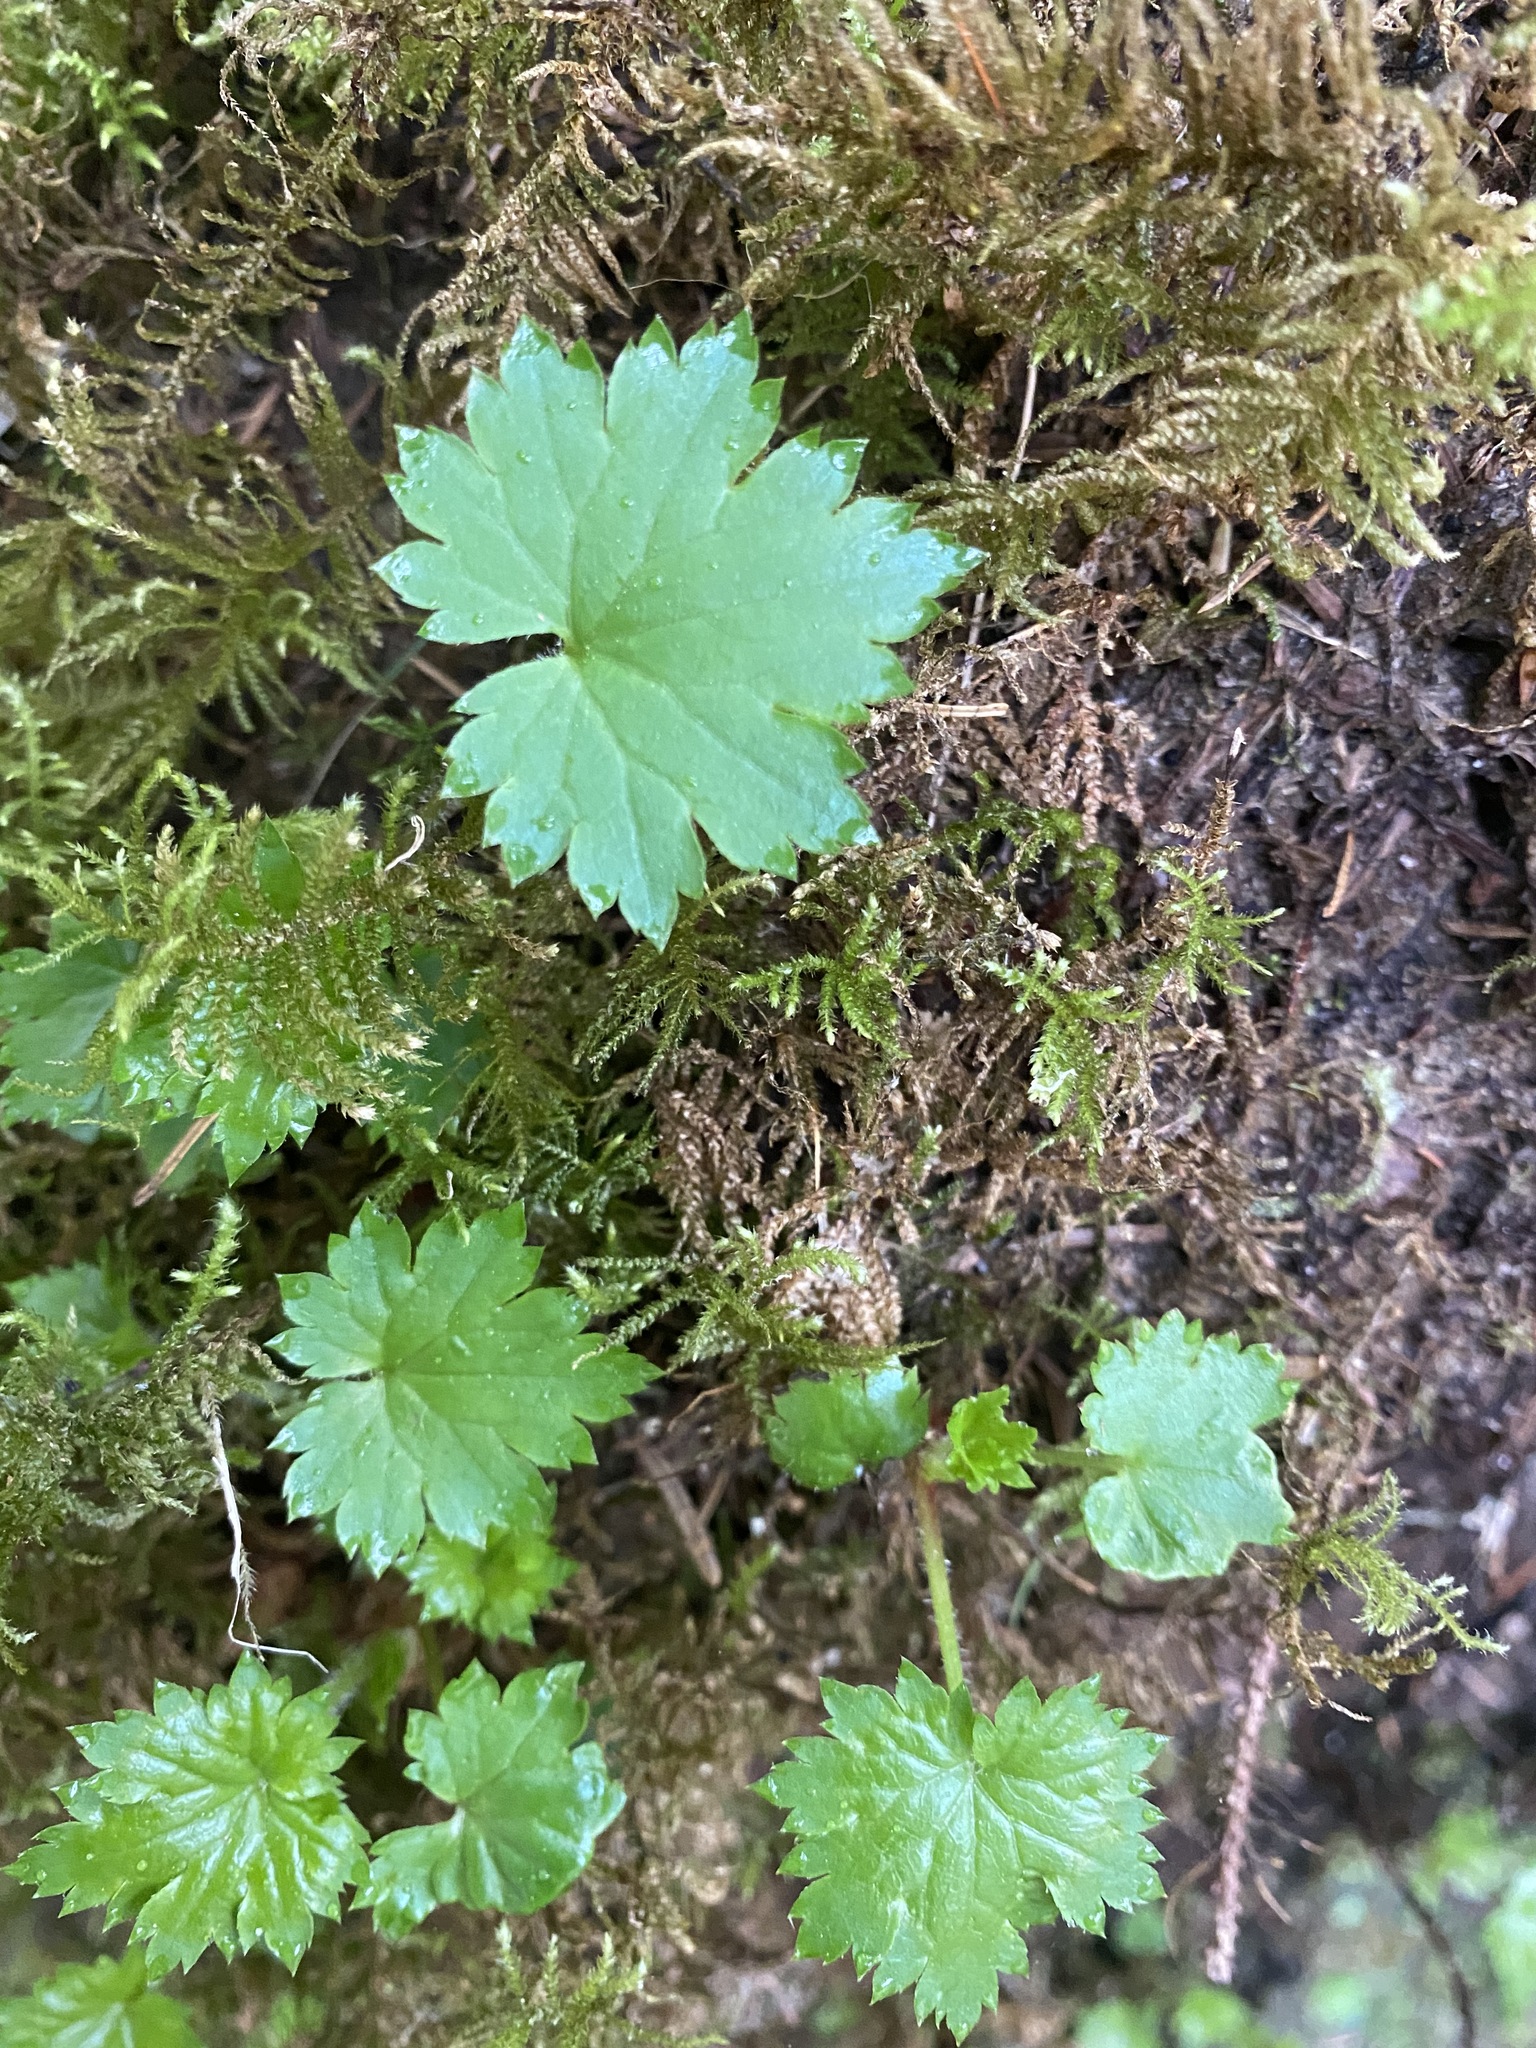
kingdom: Plantae
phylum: Tracheophyta
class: Magnoliopsida
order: Saxifragales
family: Saxifragaceae
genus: Boykinia
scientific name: Boykinia occidentalis
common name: Coast boykinia
